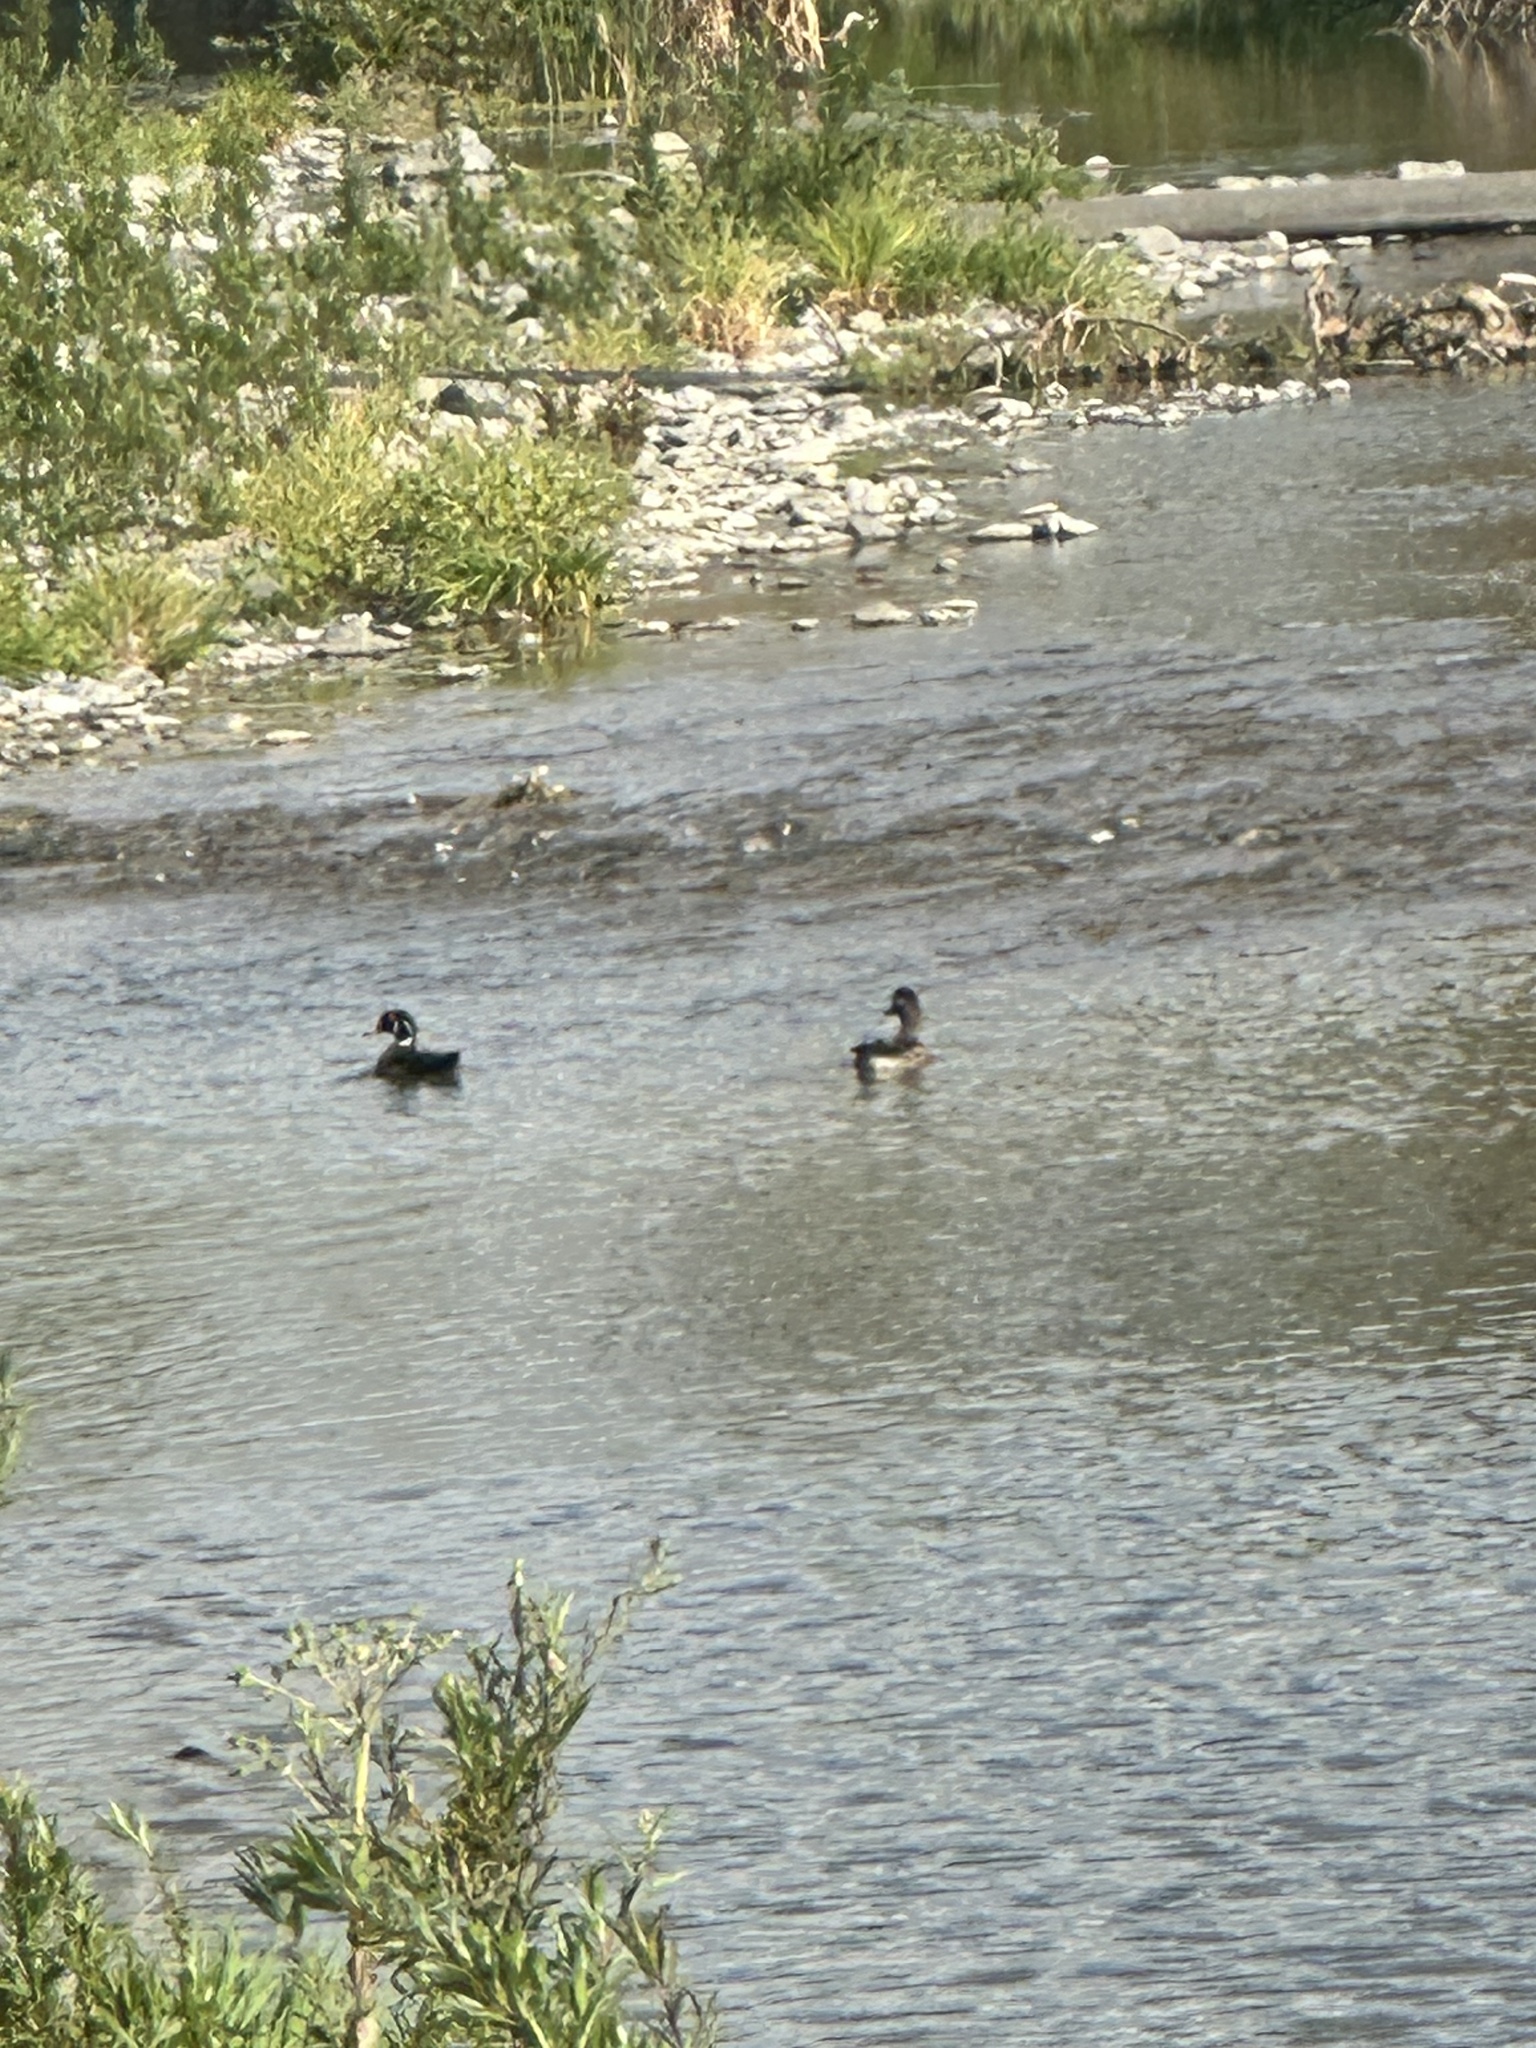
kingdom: Animalia
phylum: Chordata
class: Aves
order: Anseriformes
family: Anatidae
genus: Aix
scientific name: Aix sponsa
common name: Wood duck
